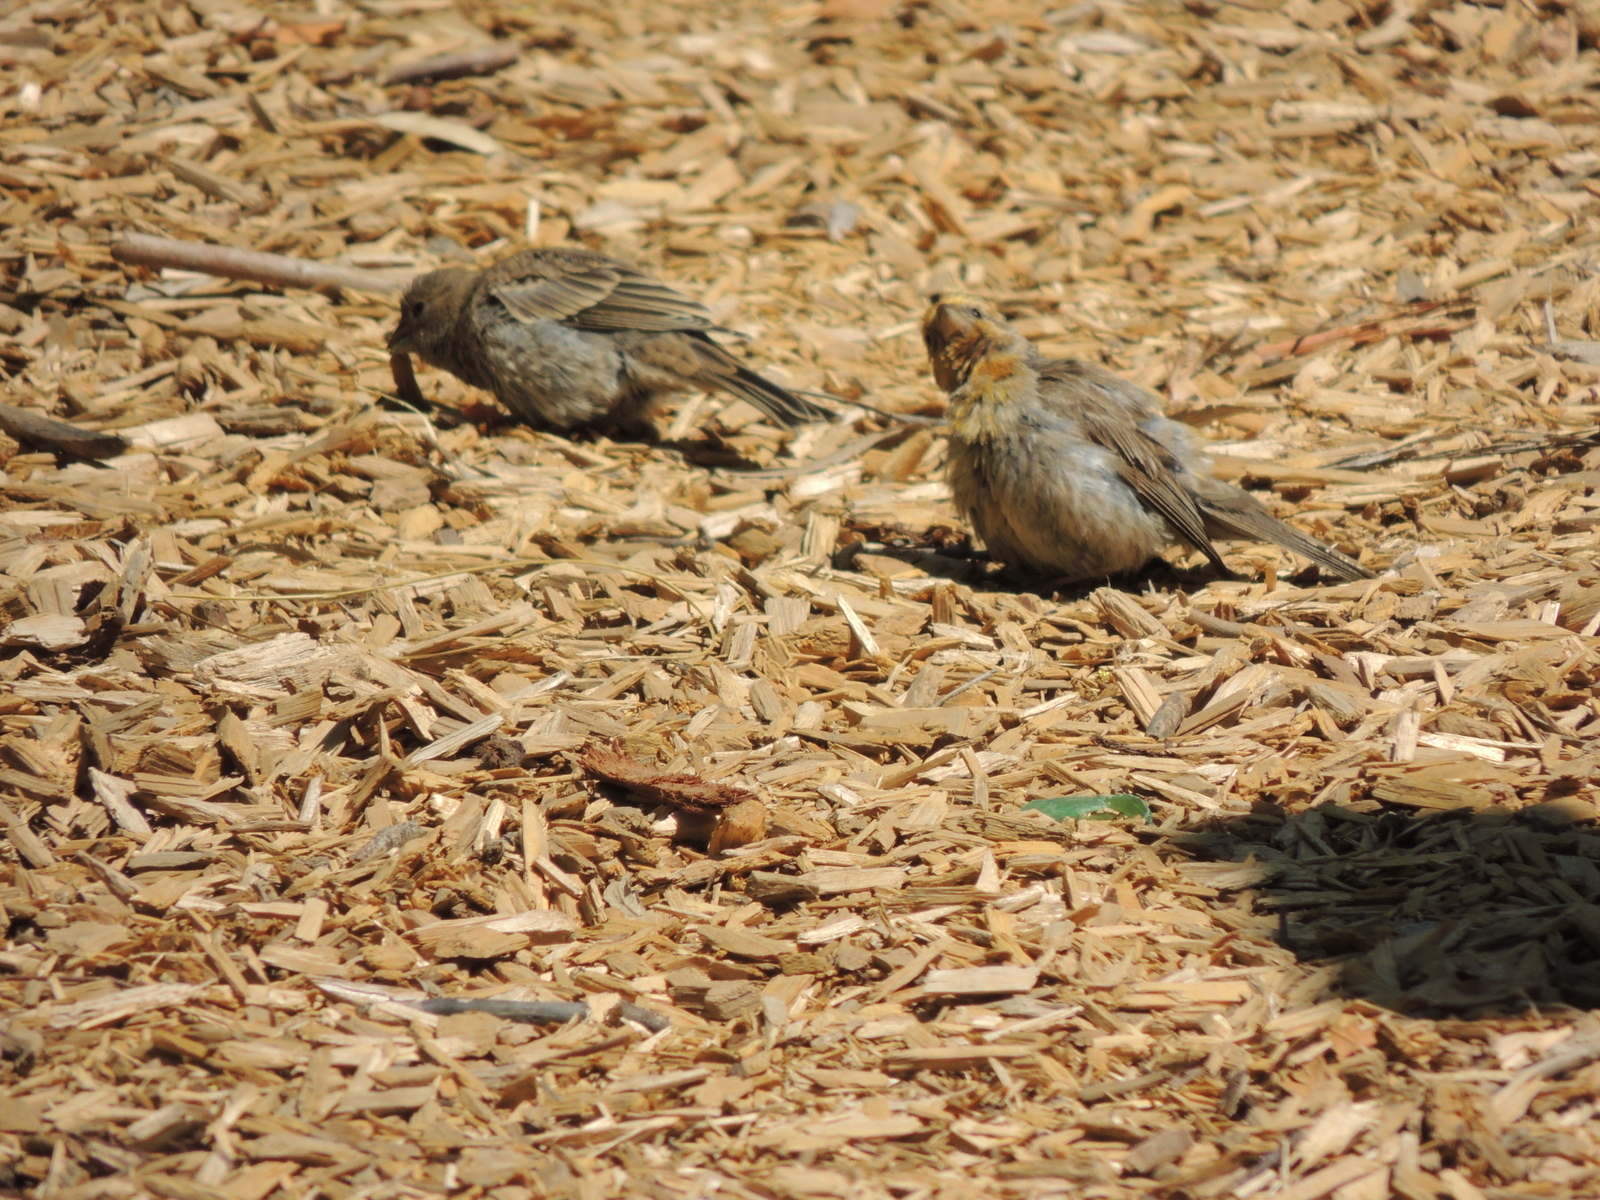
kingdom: Animalia
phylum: Chordata
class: Aves
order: Passeriformes
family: Fringillidae
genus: Haemorhous
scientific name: Haemorhous mexicanus
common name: House finch
